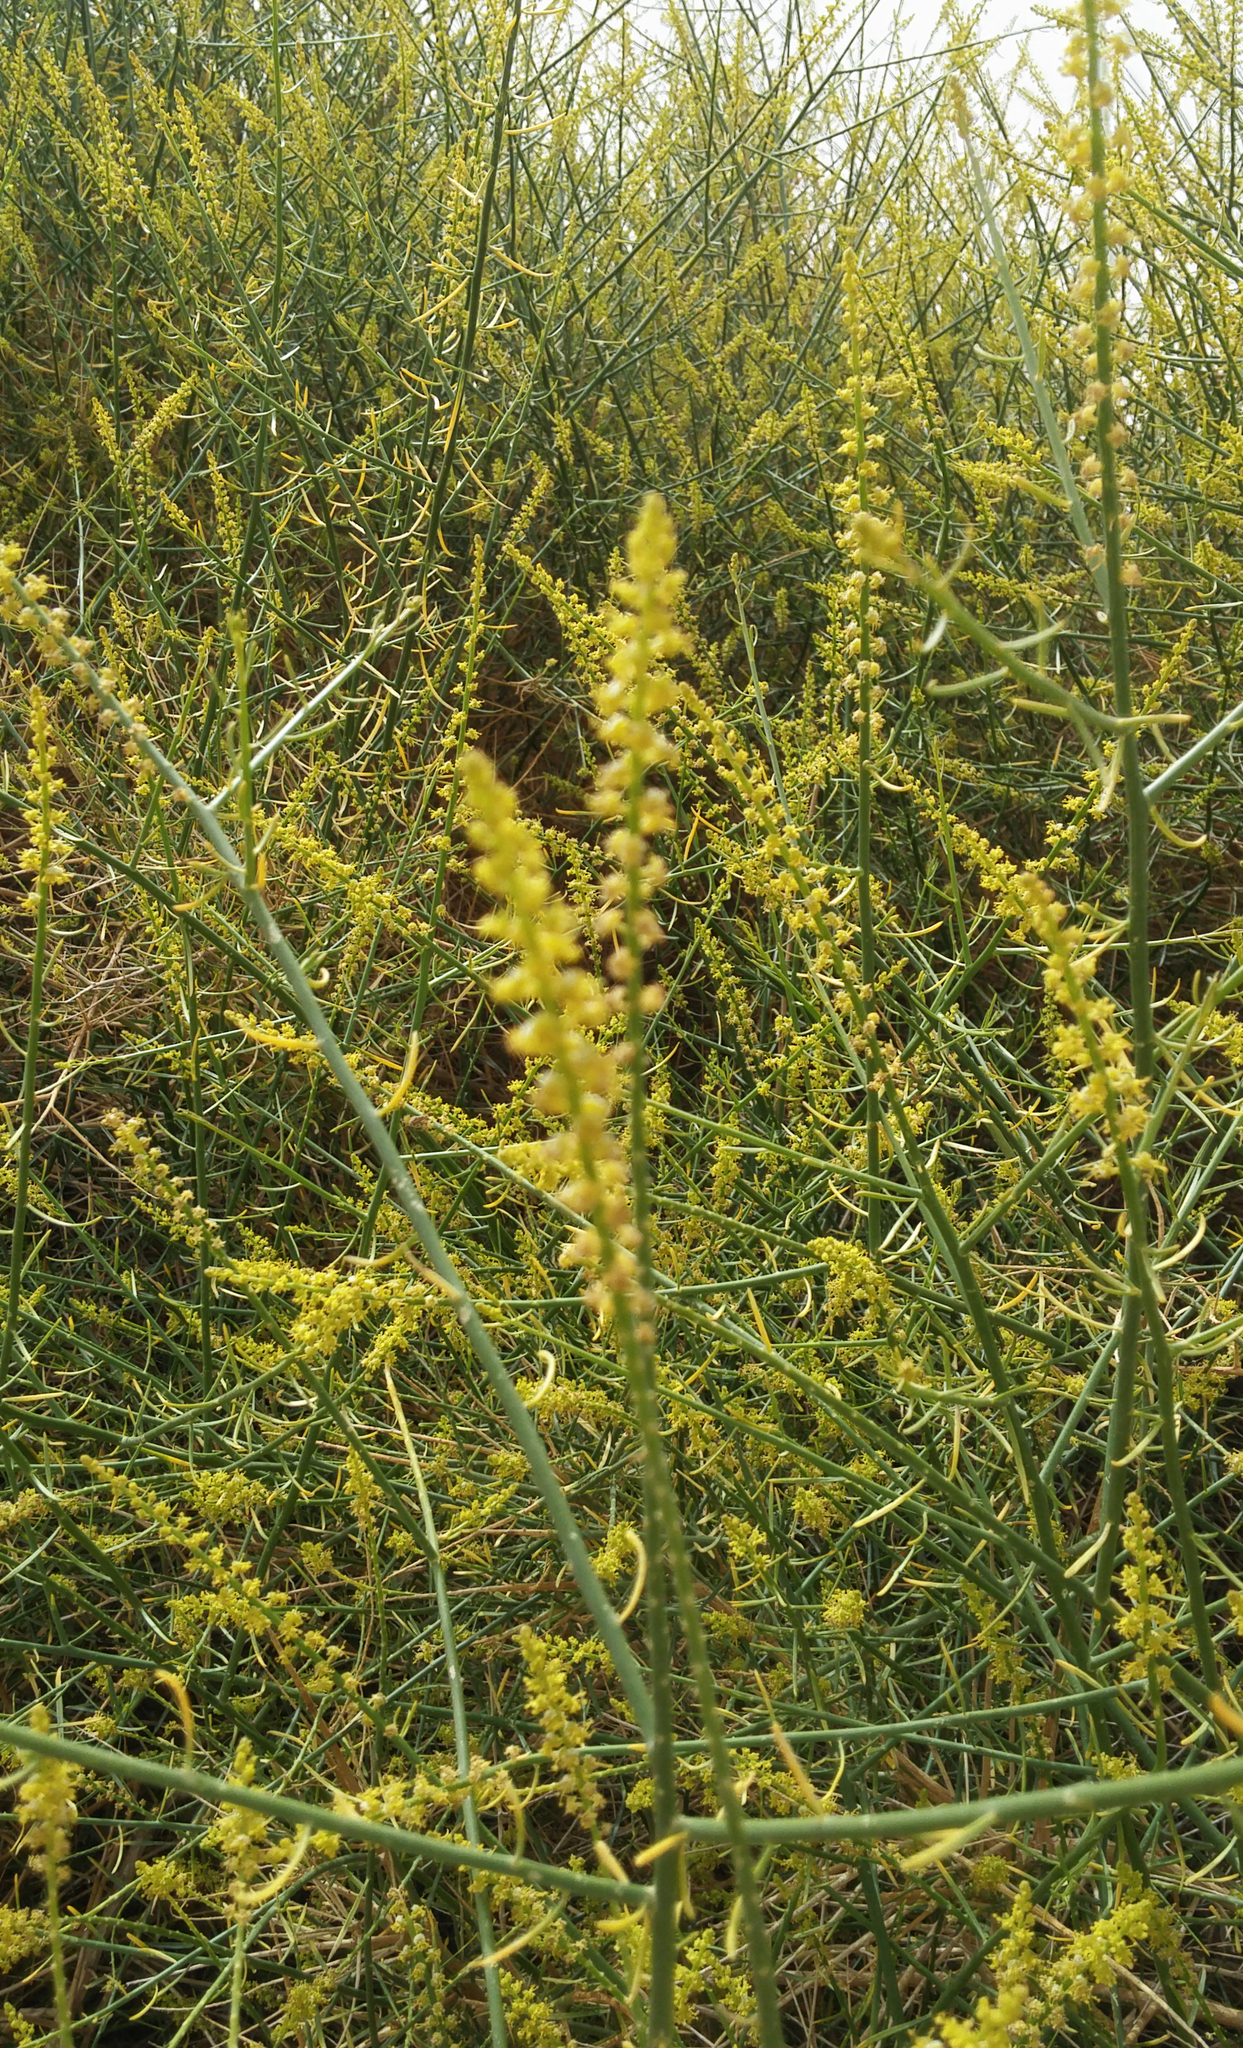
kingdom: Plantae
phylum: Tracheophyta
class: Magnoliopsida
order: Brassicales
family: Resedaceae
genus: Ochradenus
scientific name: Ochradenus baccatus
